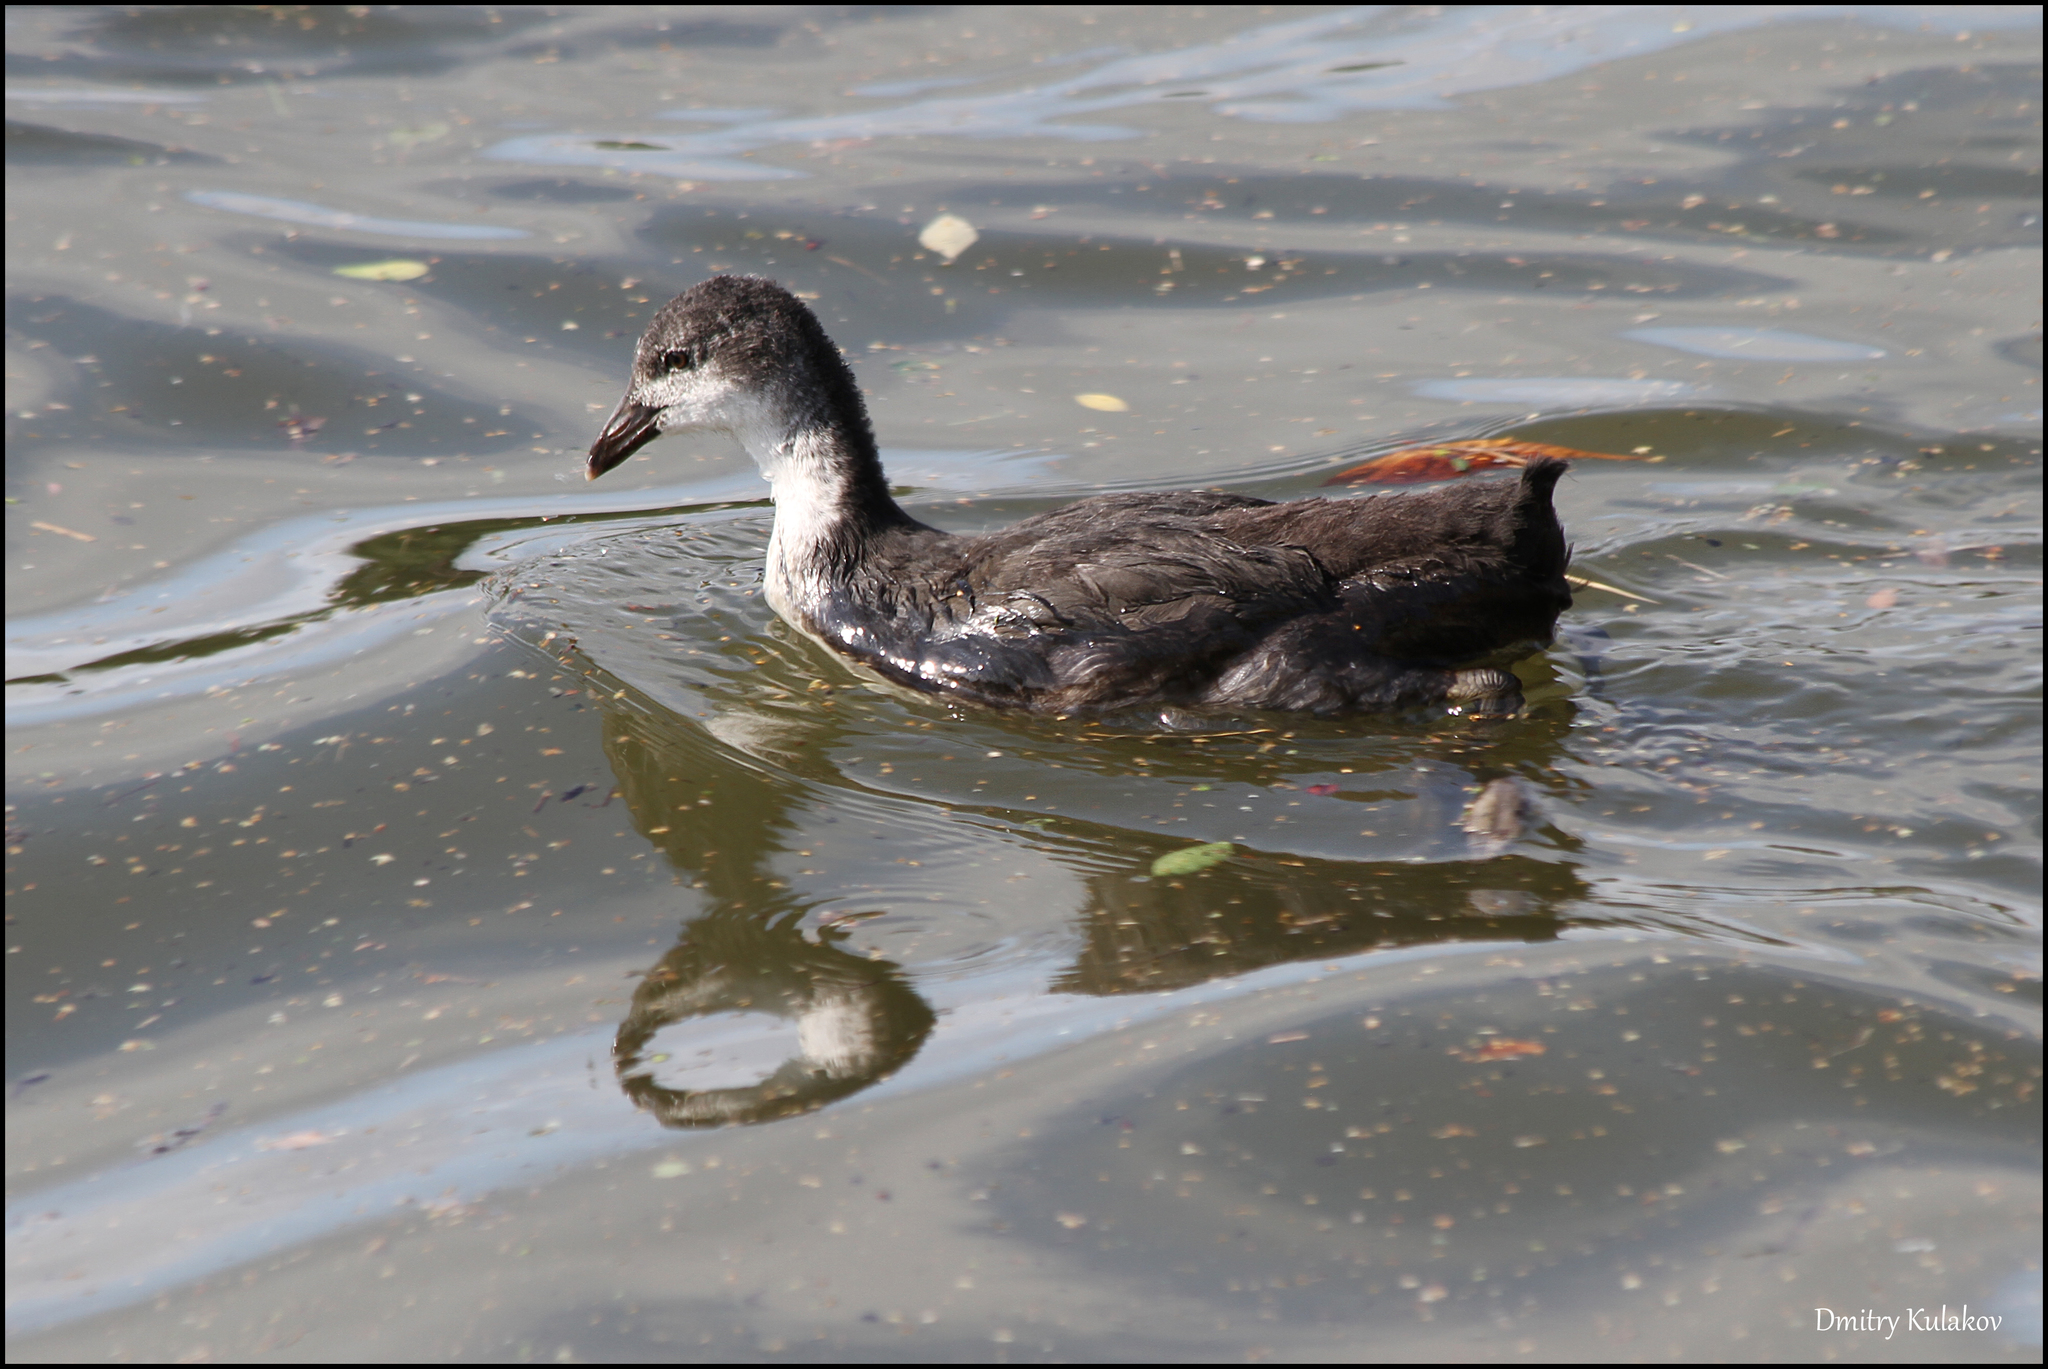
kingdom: Animalia
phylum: Chordata
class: Aves
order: Gruiformes
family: Rallidae
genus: Fulica
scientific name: Fulica atra
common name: Eurasian coot
